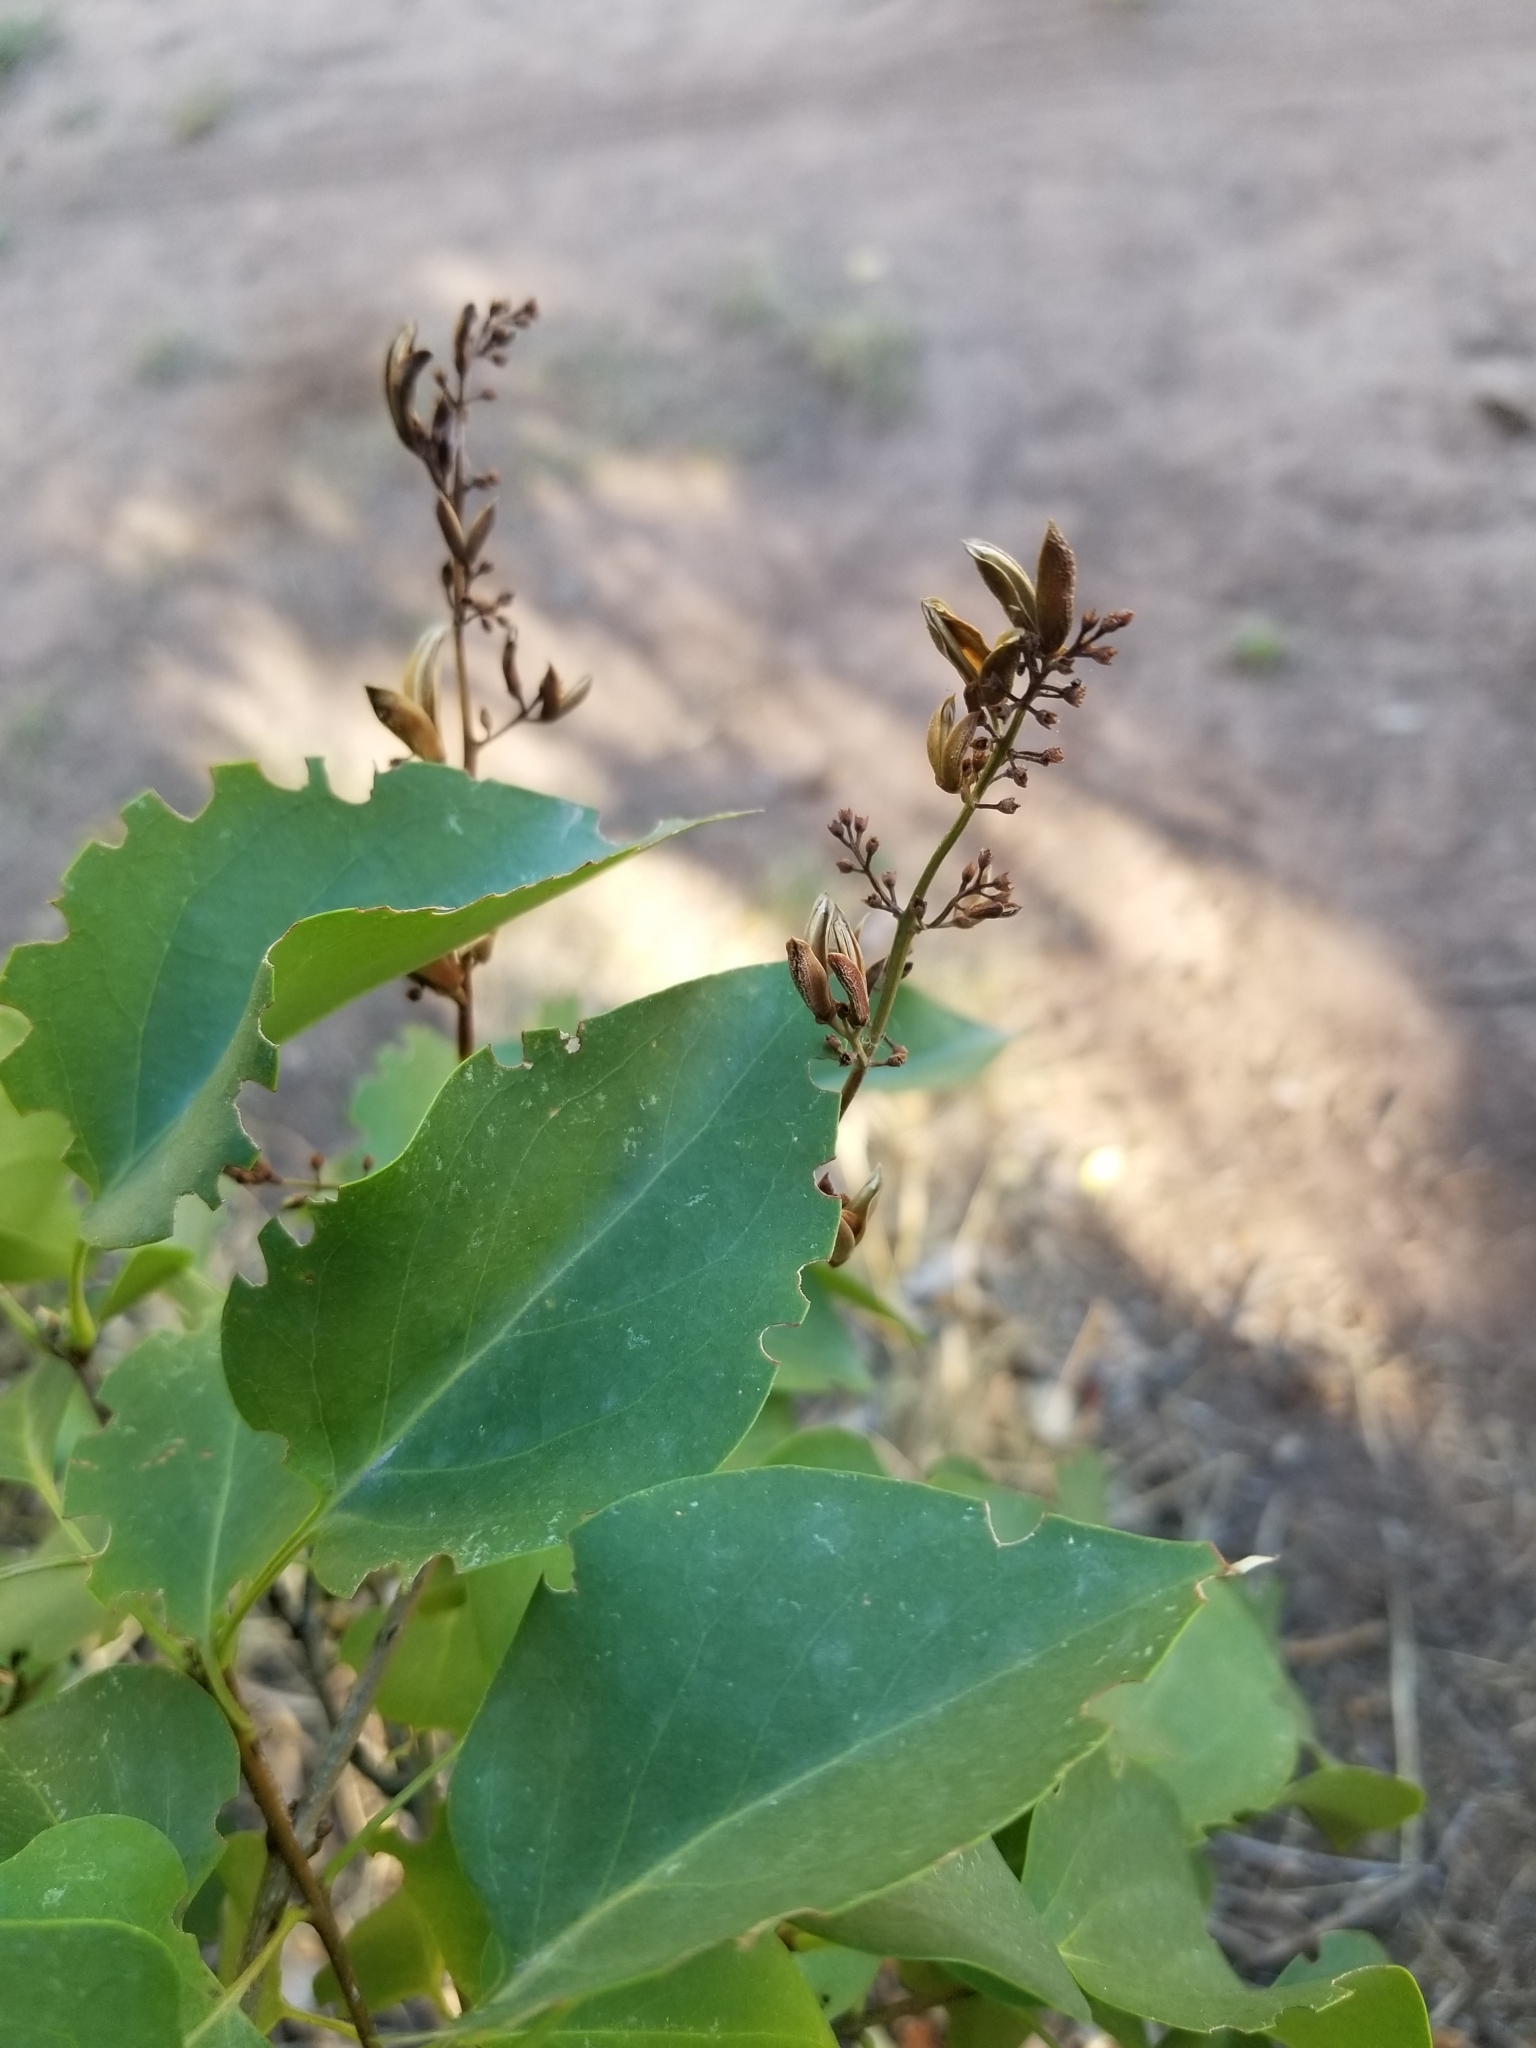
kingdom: Plantae
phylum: Tracheophyta
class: Magnoliopsida
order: Lamiales
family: Oleaceae
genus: Syringa
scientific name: Syringa vulgaris
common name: Common lilac
